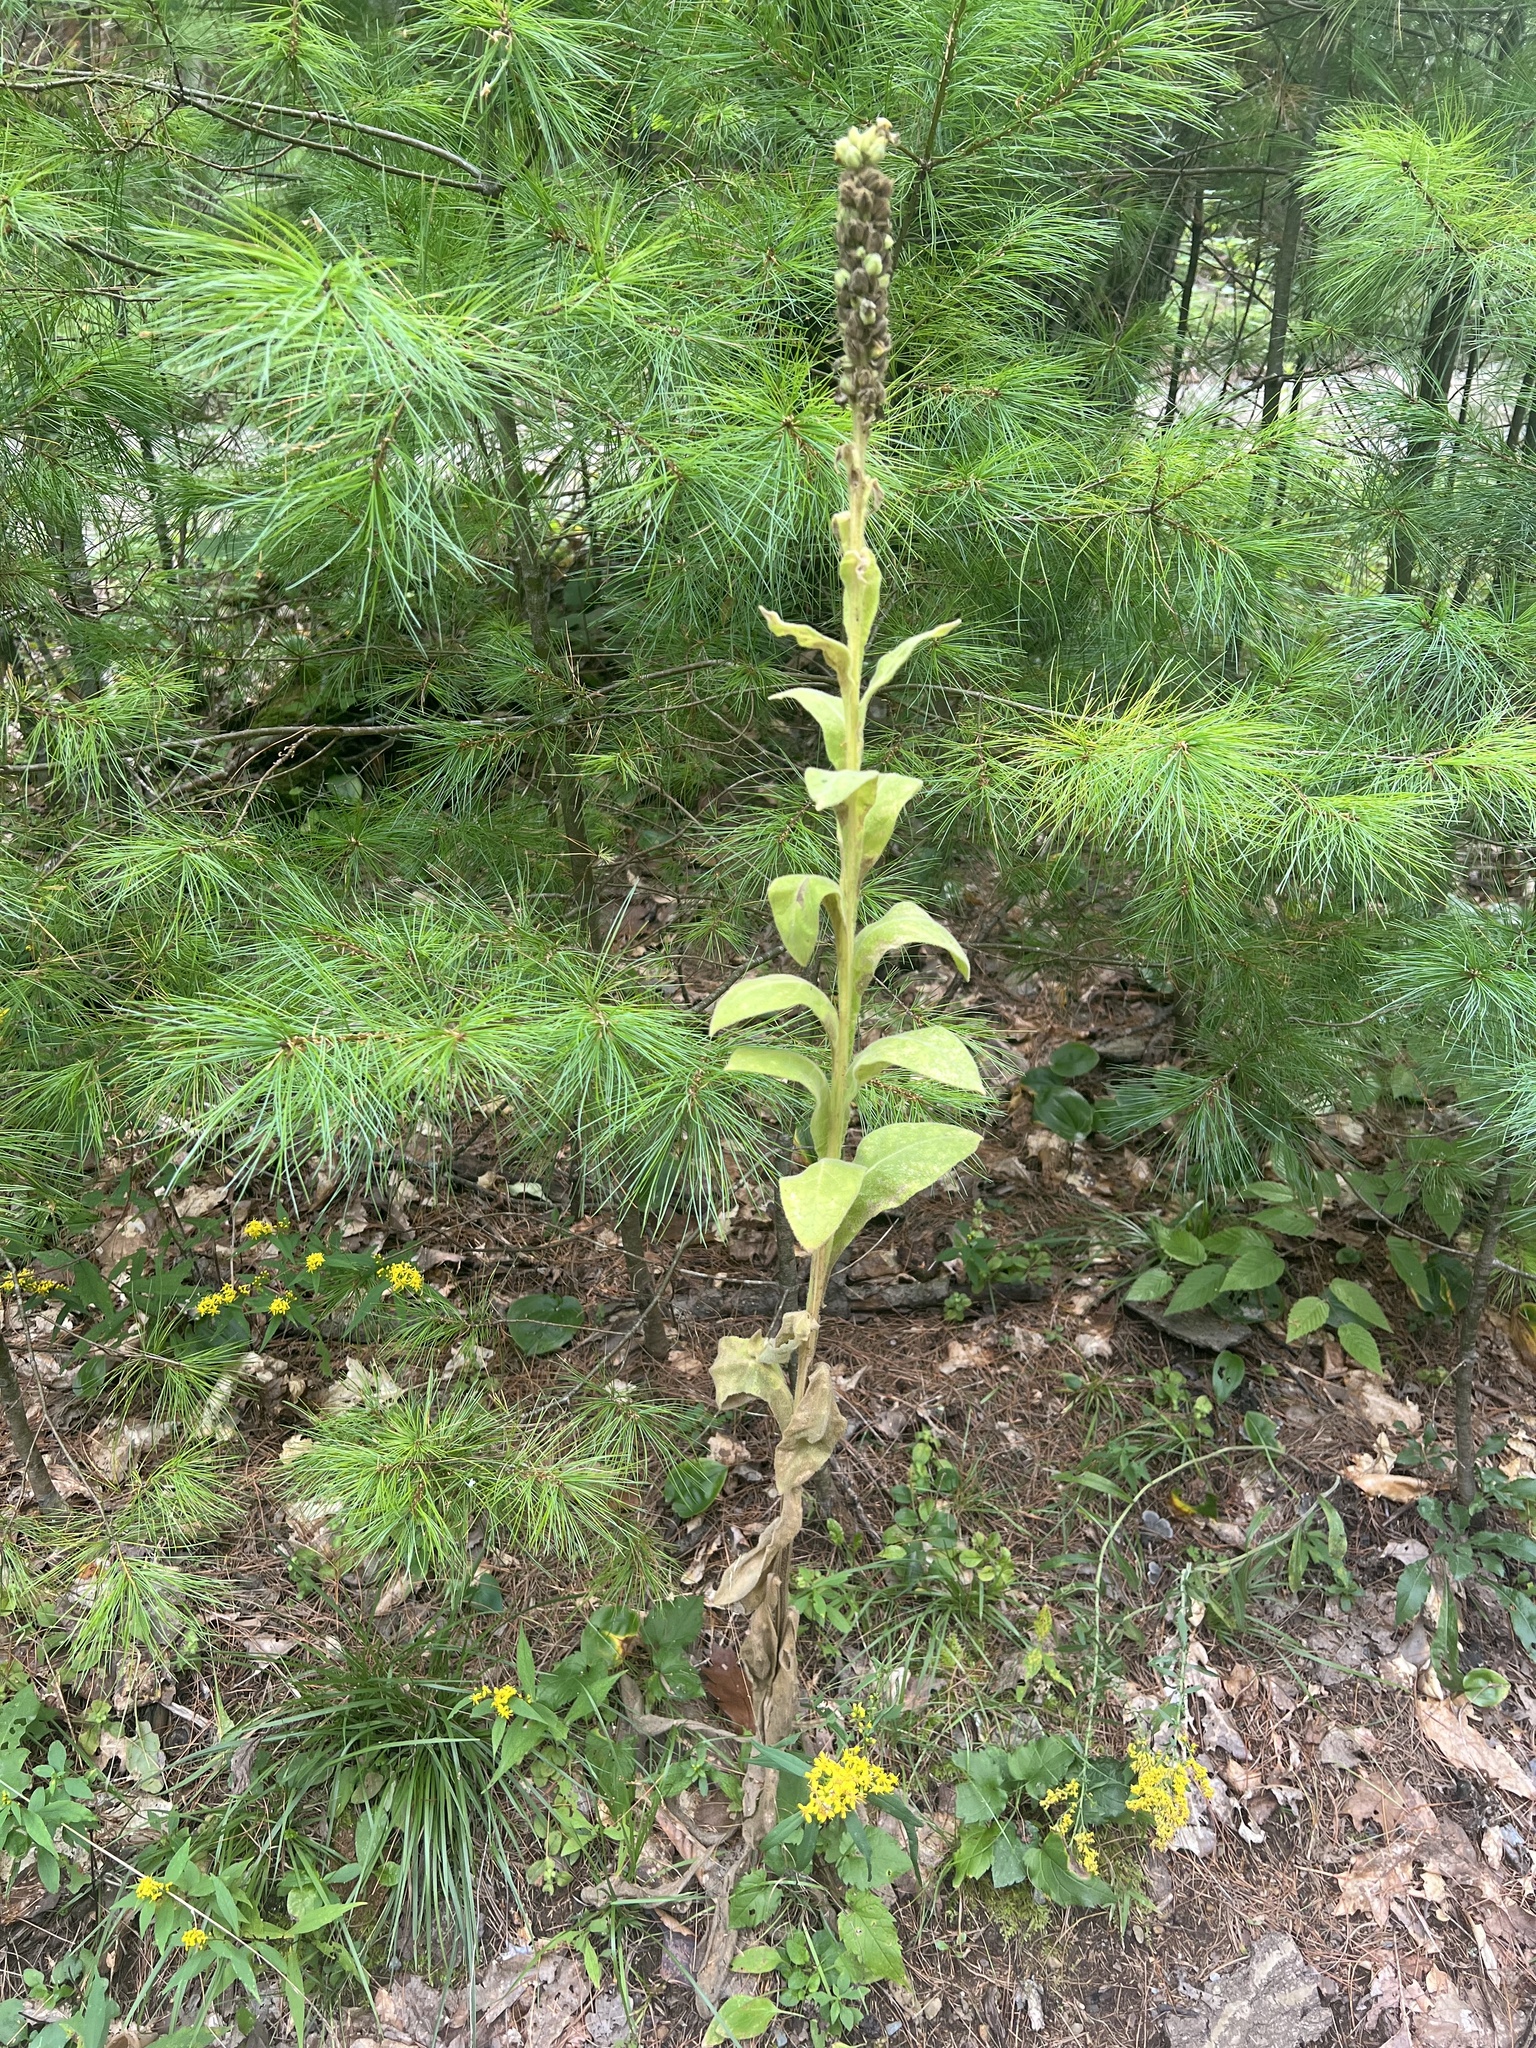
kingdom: Plantae
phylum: Tracheophyta
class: Magnoliopsida
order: Lamiales
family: Scrophulariaceae
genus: Verbascum
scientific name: Verbascum thapsus
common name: Common mullein
